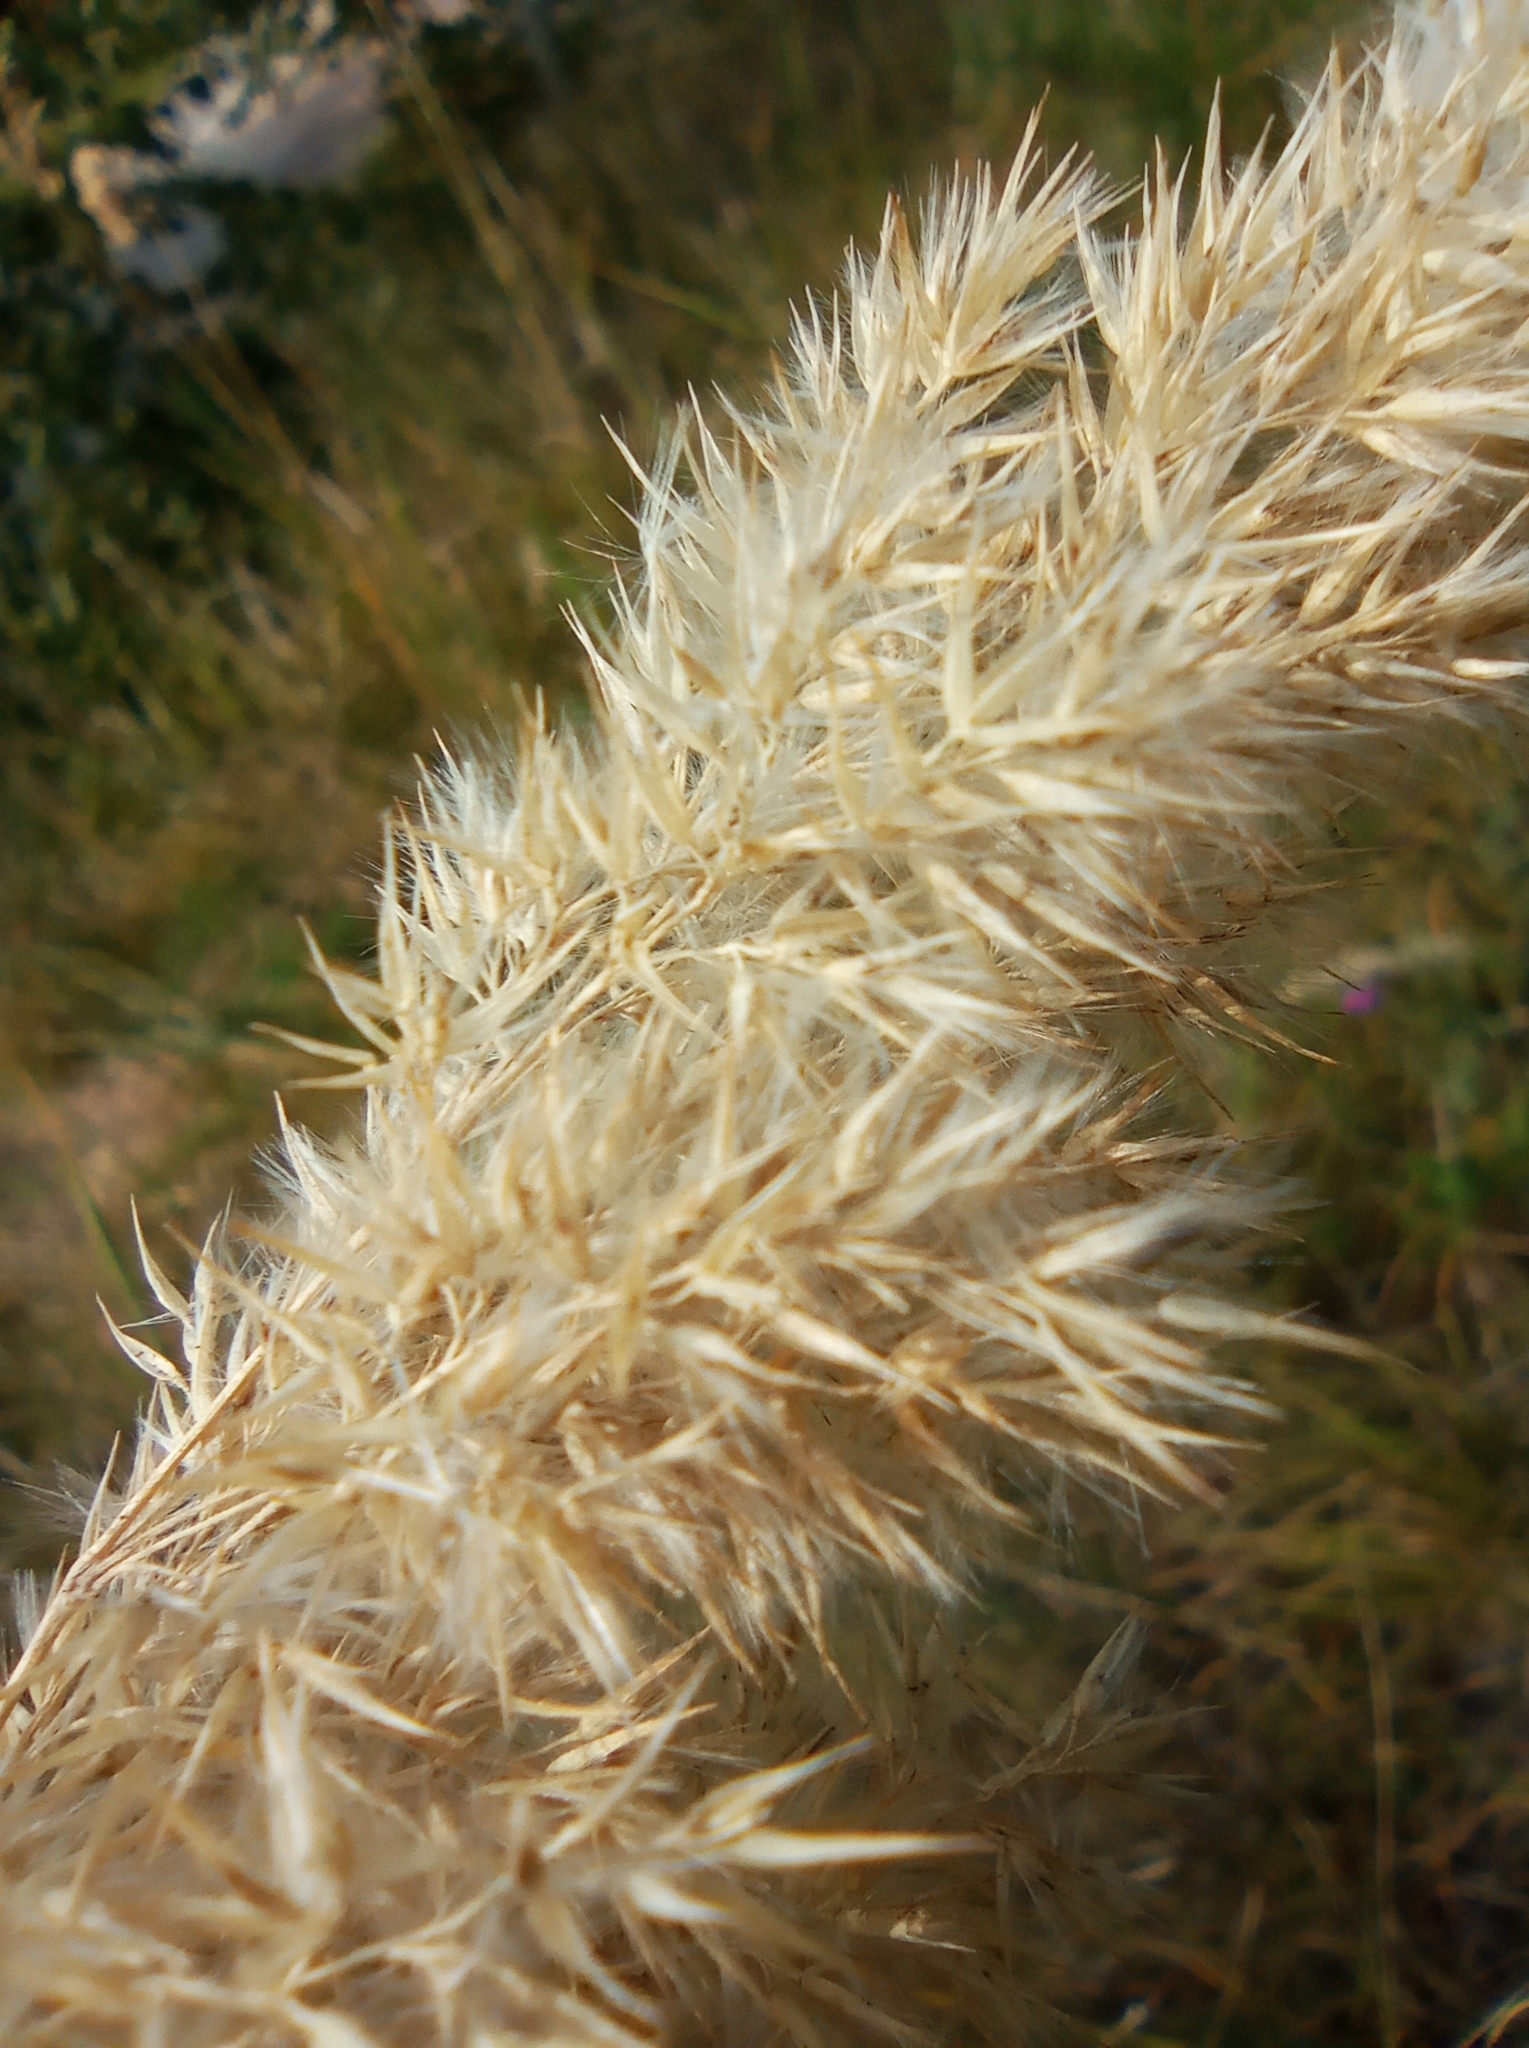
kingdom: Plantae
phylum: Tracheophyta
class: Liliopsida
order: Poales
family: Poaceae
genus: Calamagrostis
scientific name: Calamagrostis epigejos
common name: Wood small-reed
